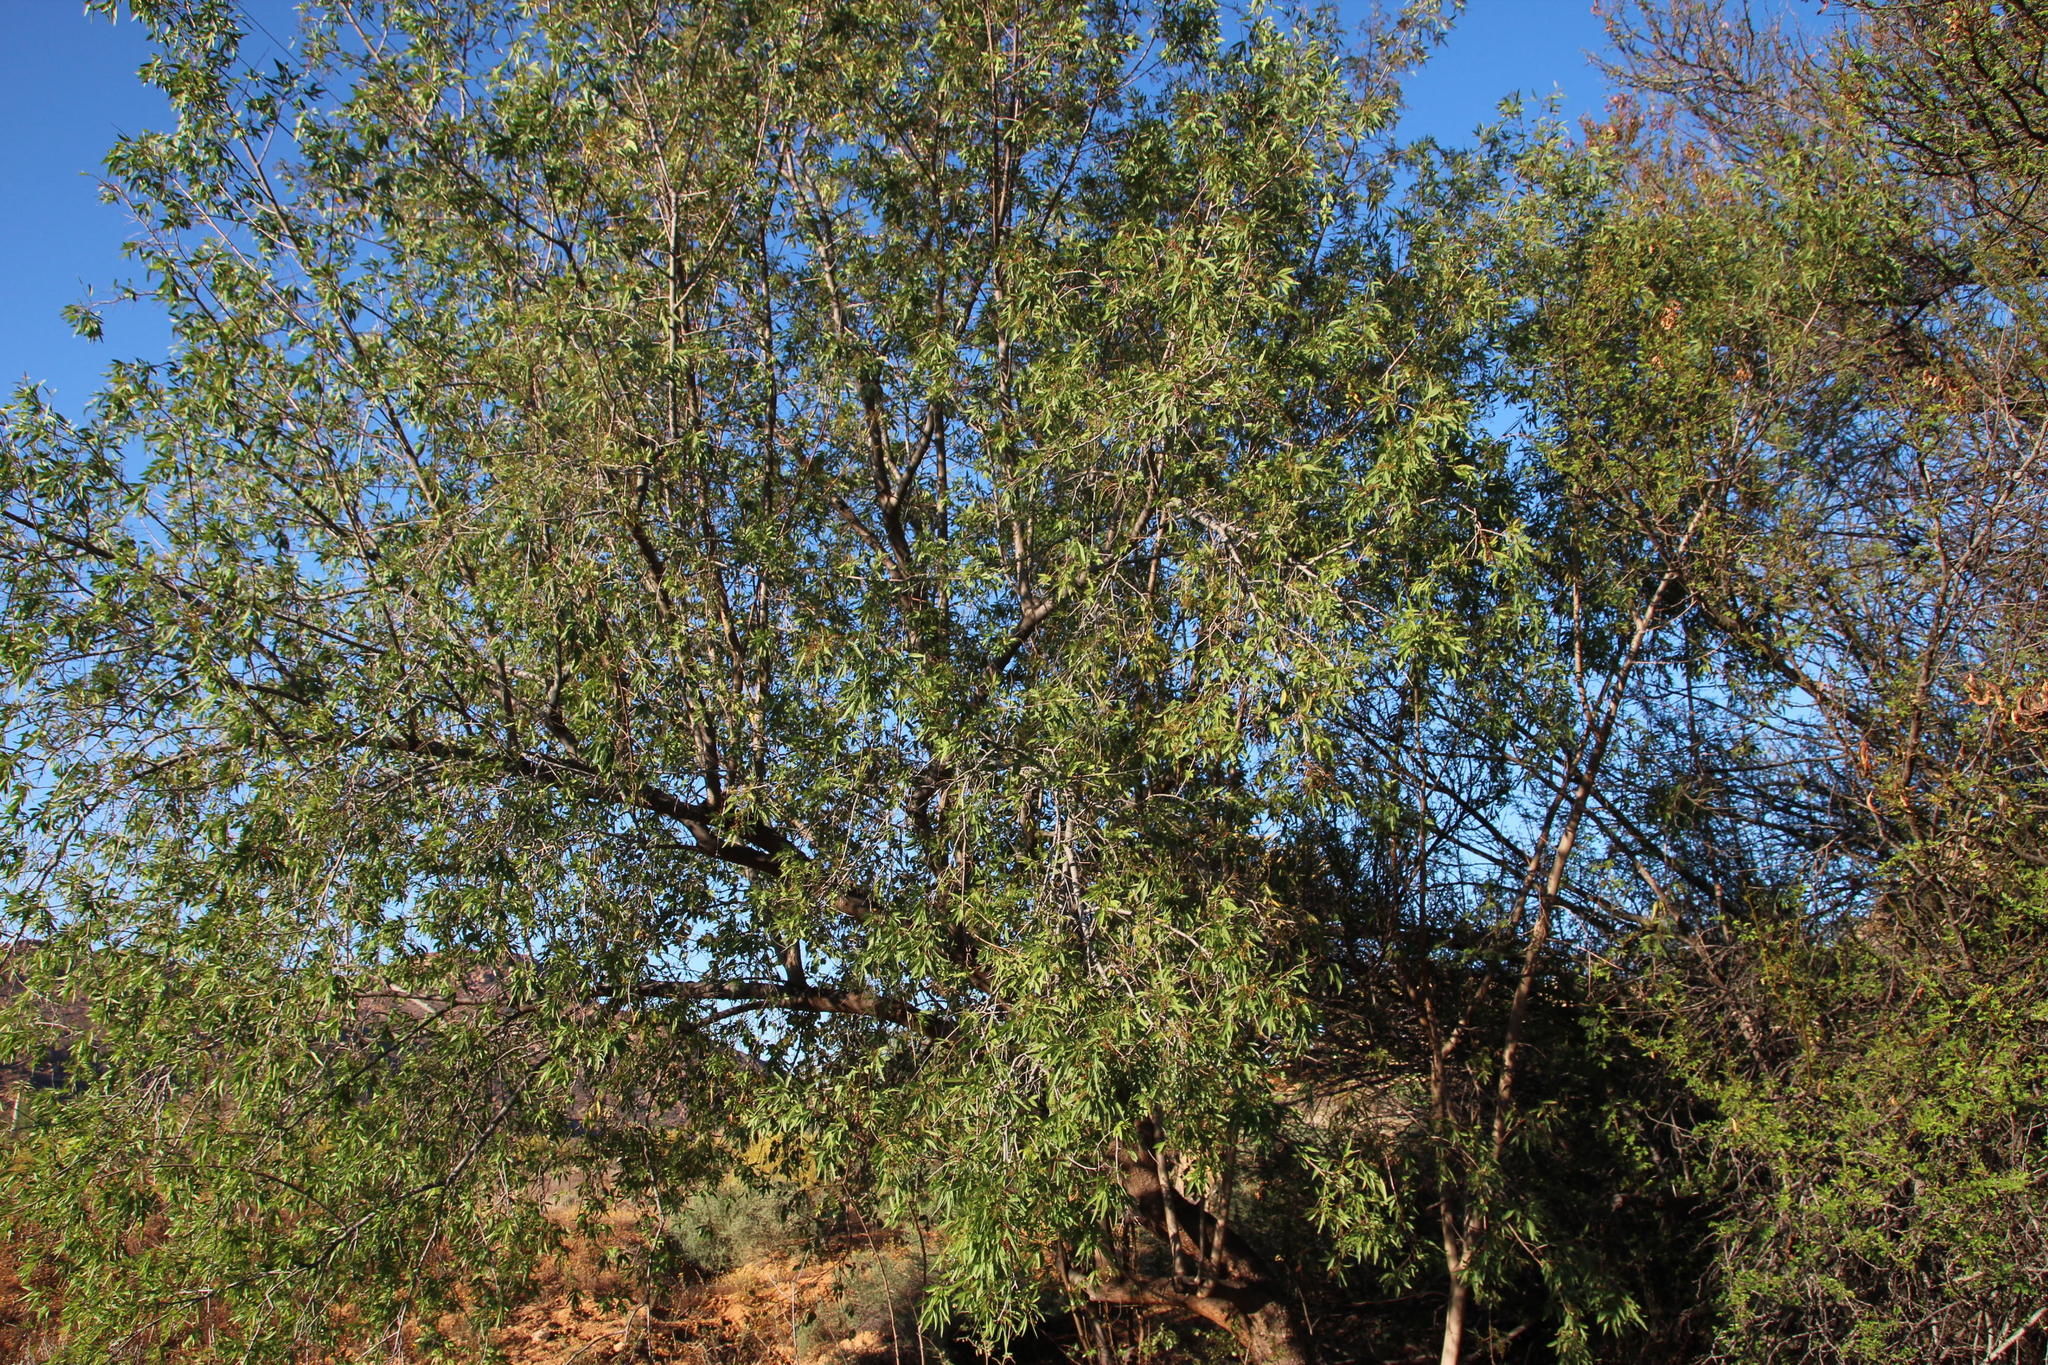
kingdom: Plantae
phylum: Tracheophyta
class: Magnoliopsida
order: Sapindales
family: Anacardiaceae
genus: Searsia
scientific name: Searsia pendulina
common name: White karee
